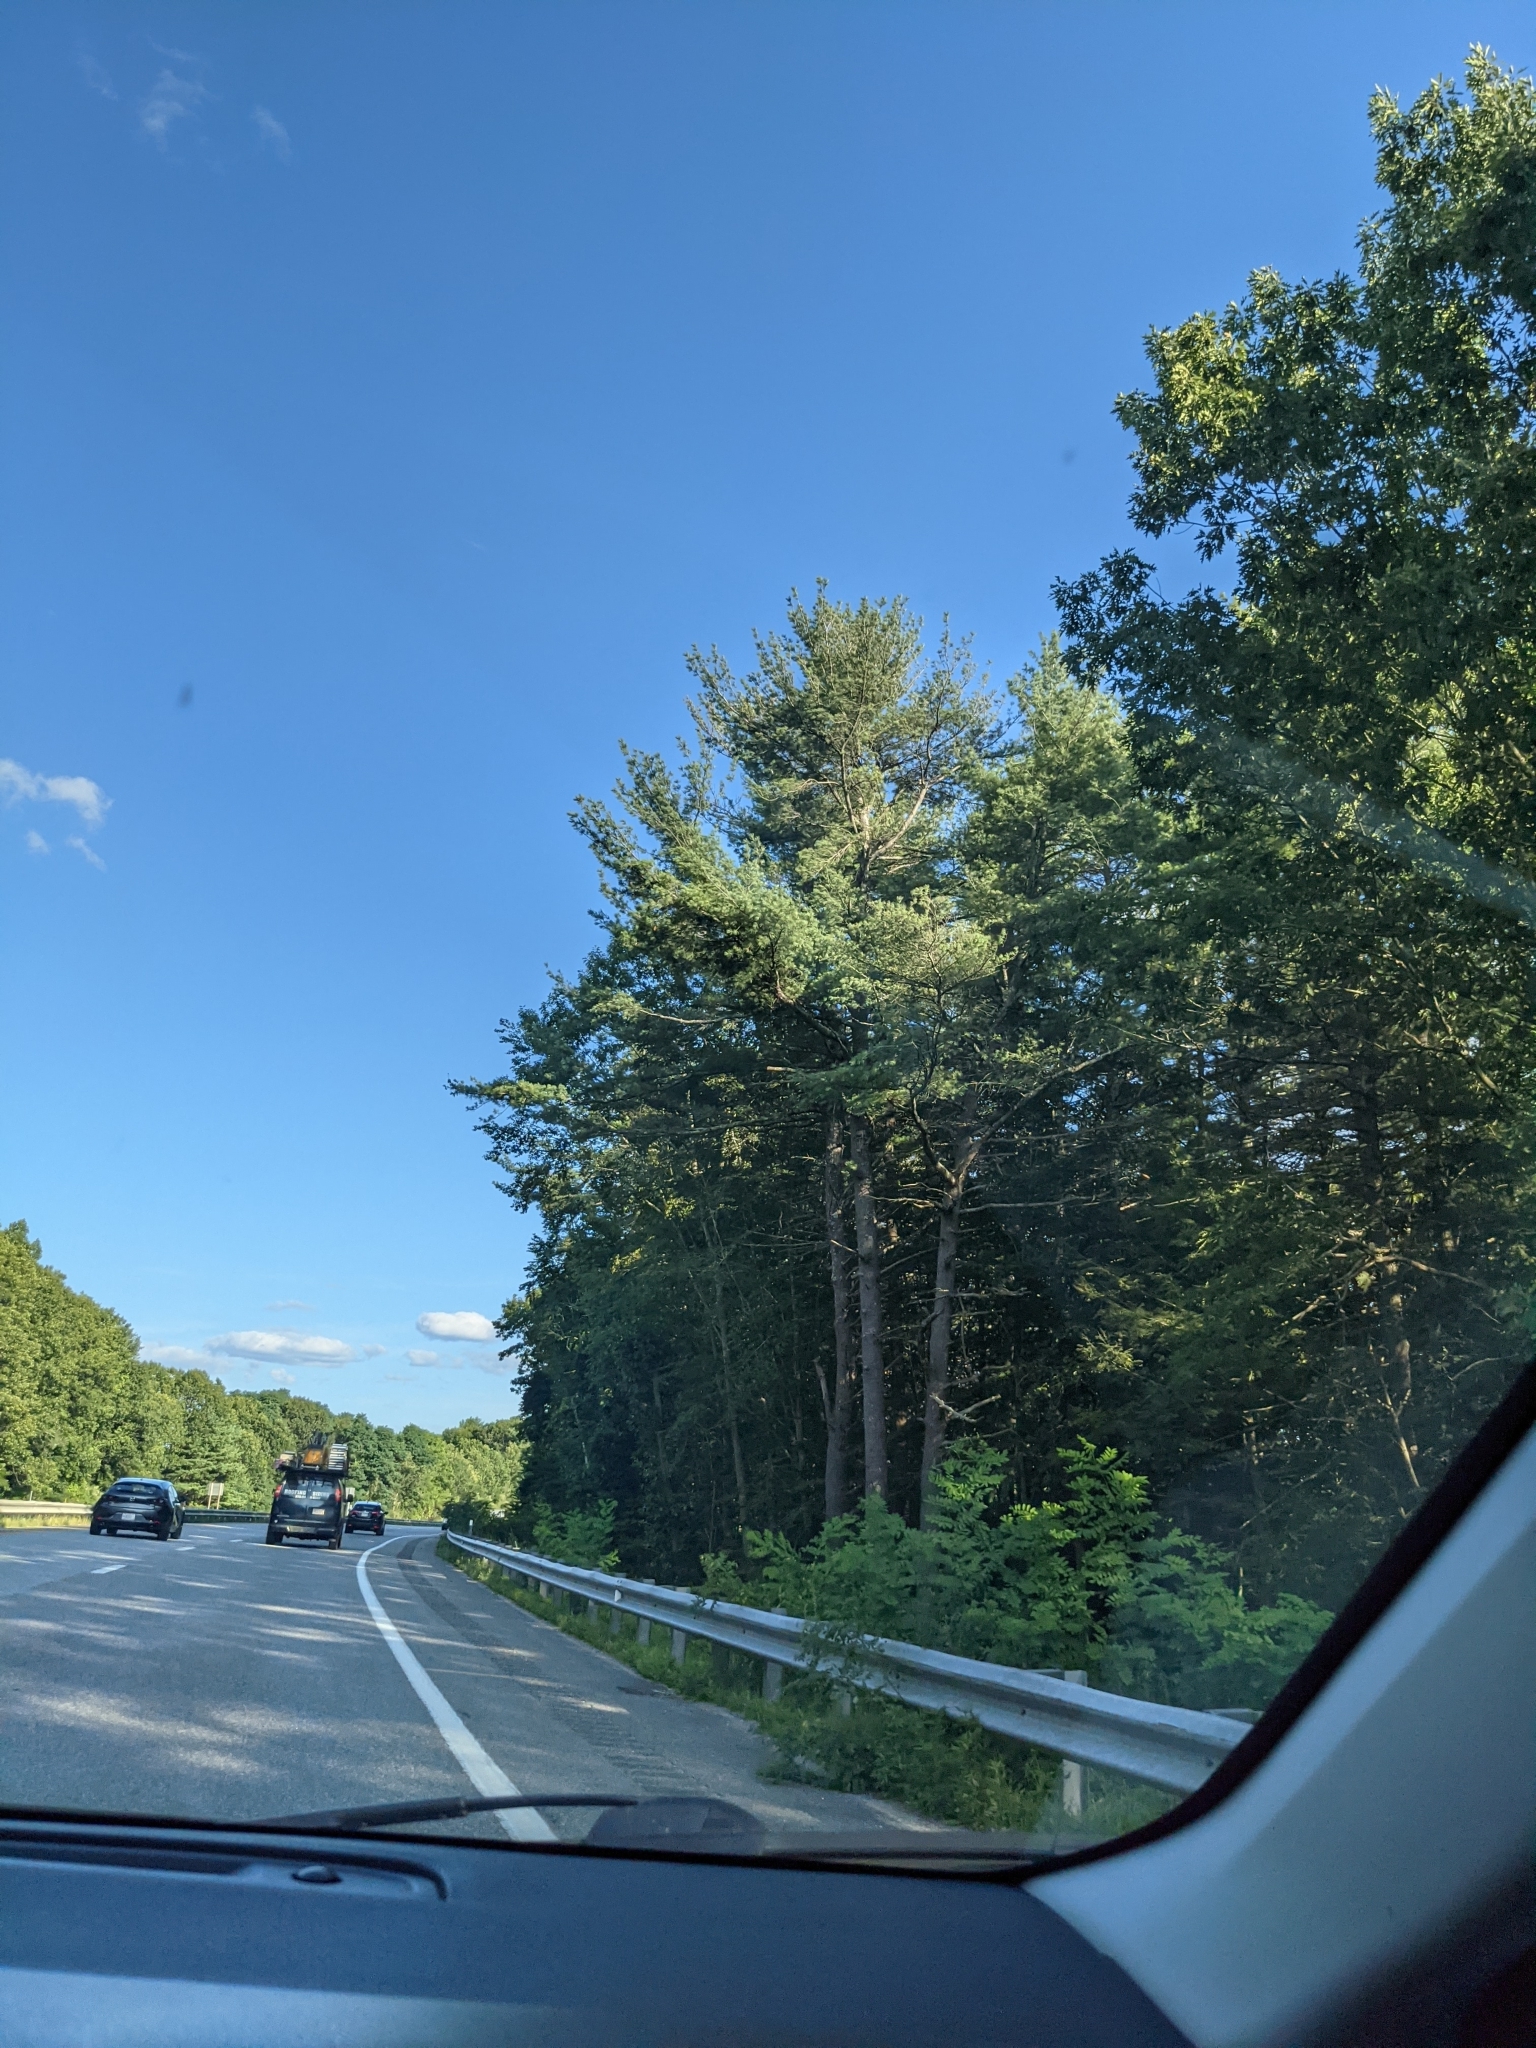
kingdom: Plantae
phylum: Tracheophyta
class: Pinopsida
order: Pinales
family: Pinaceae
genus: Pinus
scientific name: Pinus strobus
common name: Weymouth pine
